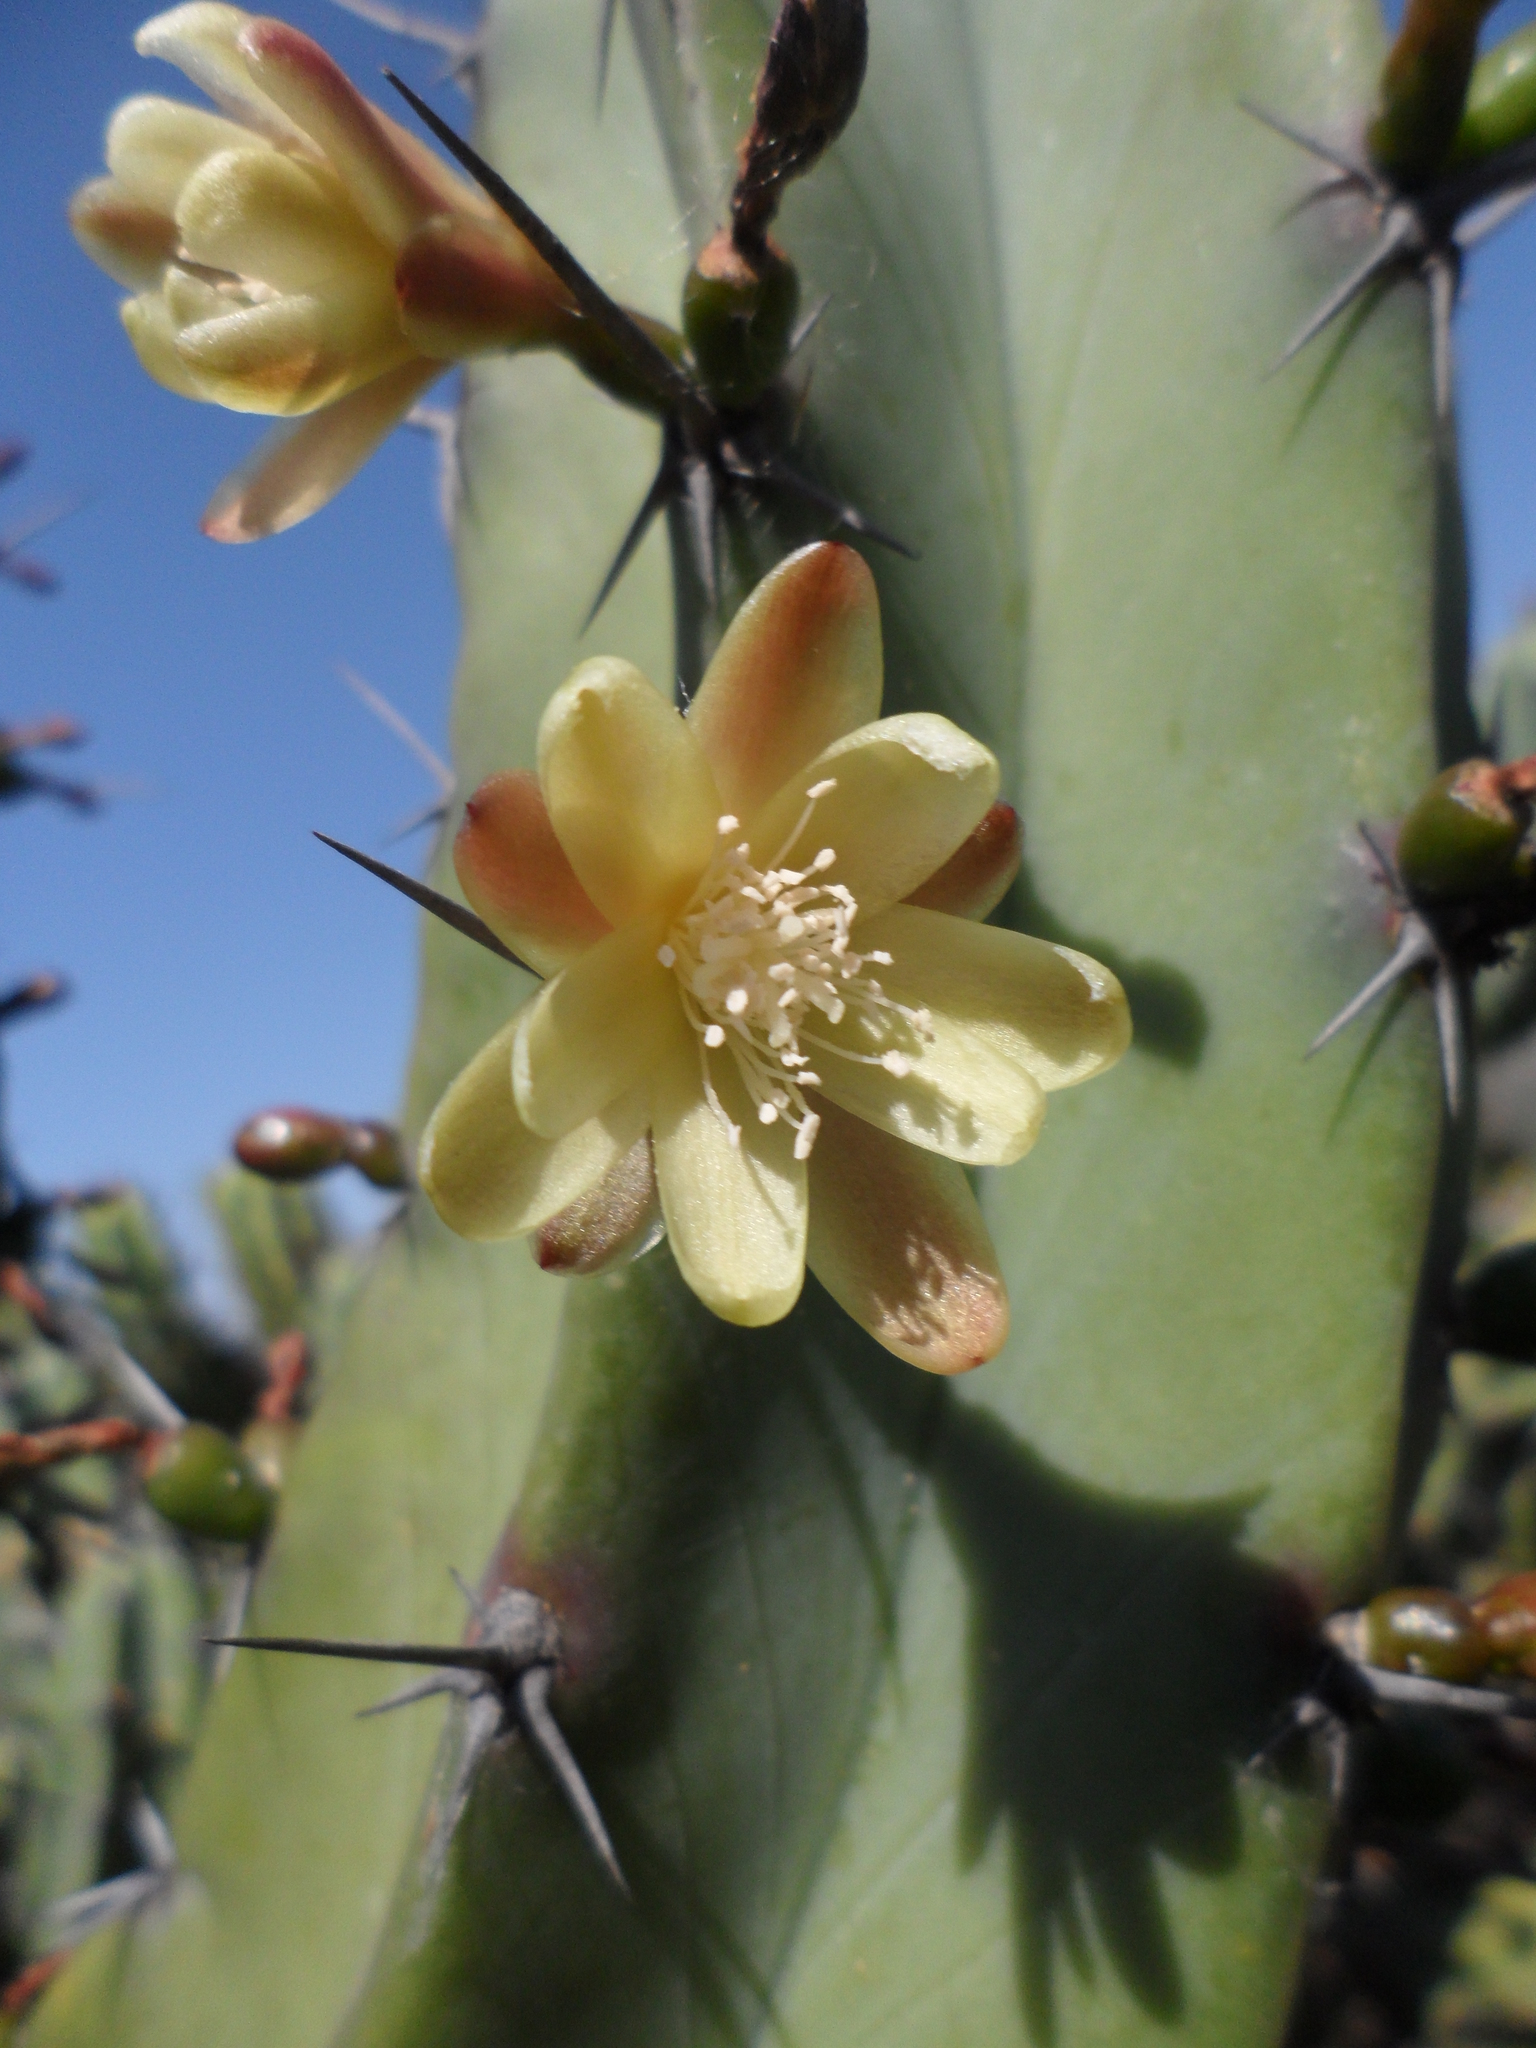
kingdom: Plantae
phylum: Tracheophyta
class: Magnoliopsida
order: Caryophyllales
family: Cactaceae
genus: Myrtillocactus
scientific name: Myrtillocactus geometrizans
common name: Bilberry cactus
